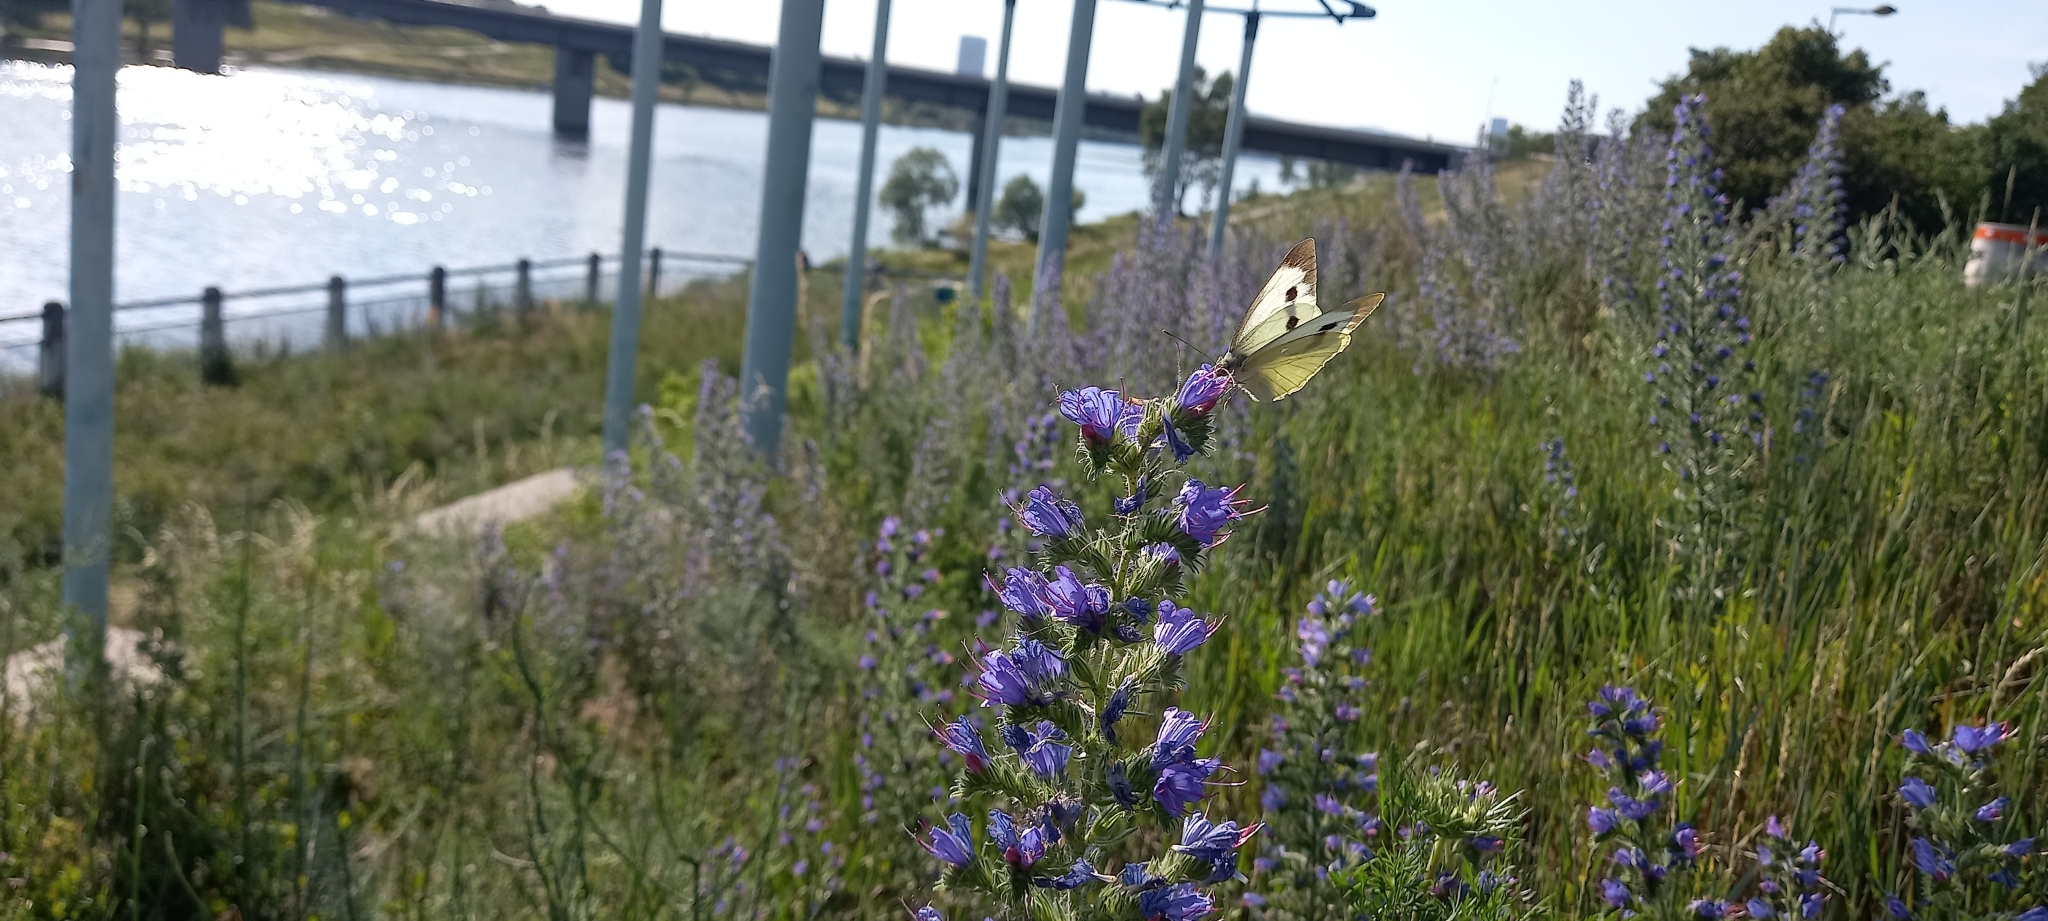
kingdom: Animalia
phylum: Arthropoda
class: Insecta
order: Lepidoptera
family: Pieridae
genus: Pieris
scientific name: Pieris brassicae
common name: Large white
